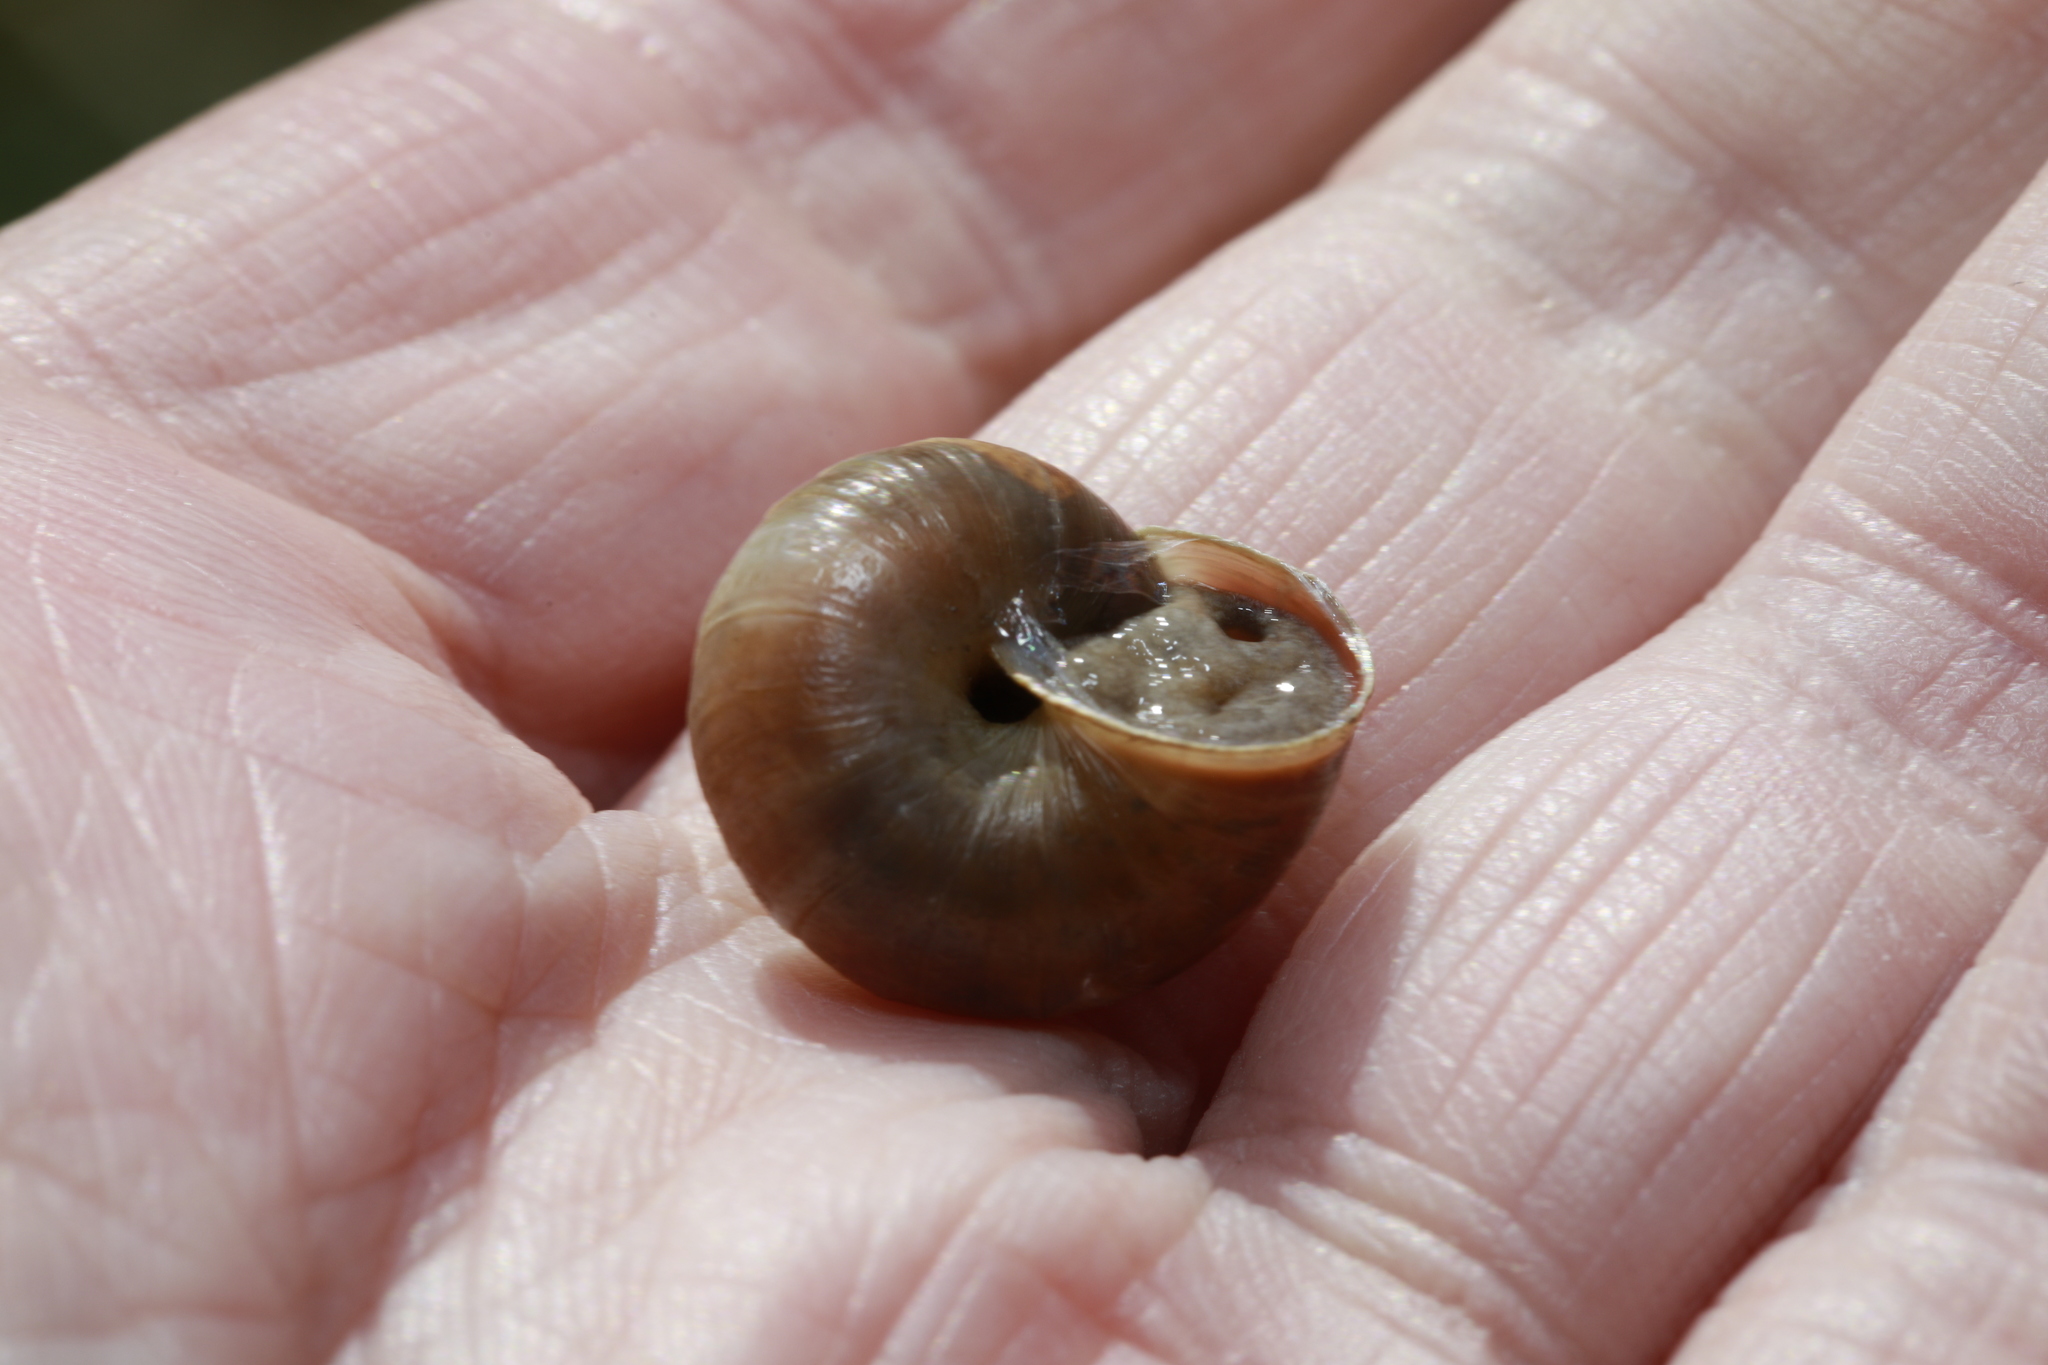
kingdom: Animalia
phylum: Mollusca
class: Gastropoda
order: Stylommatophora
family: Hygromiidae
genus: Monacha
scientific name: Monacha cantiana
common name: Kentish snail
